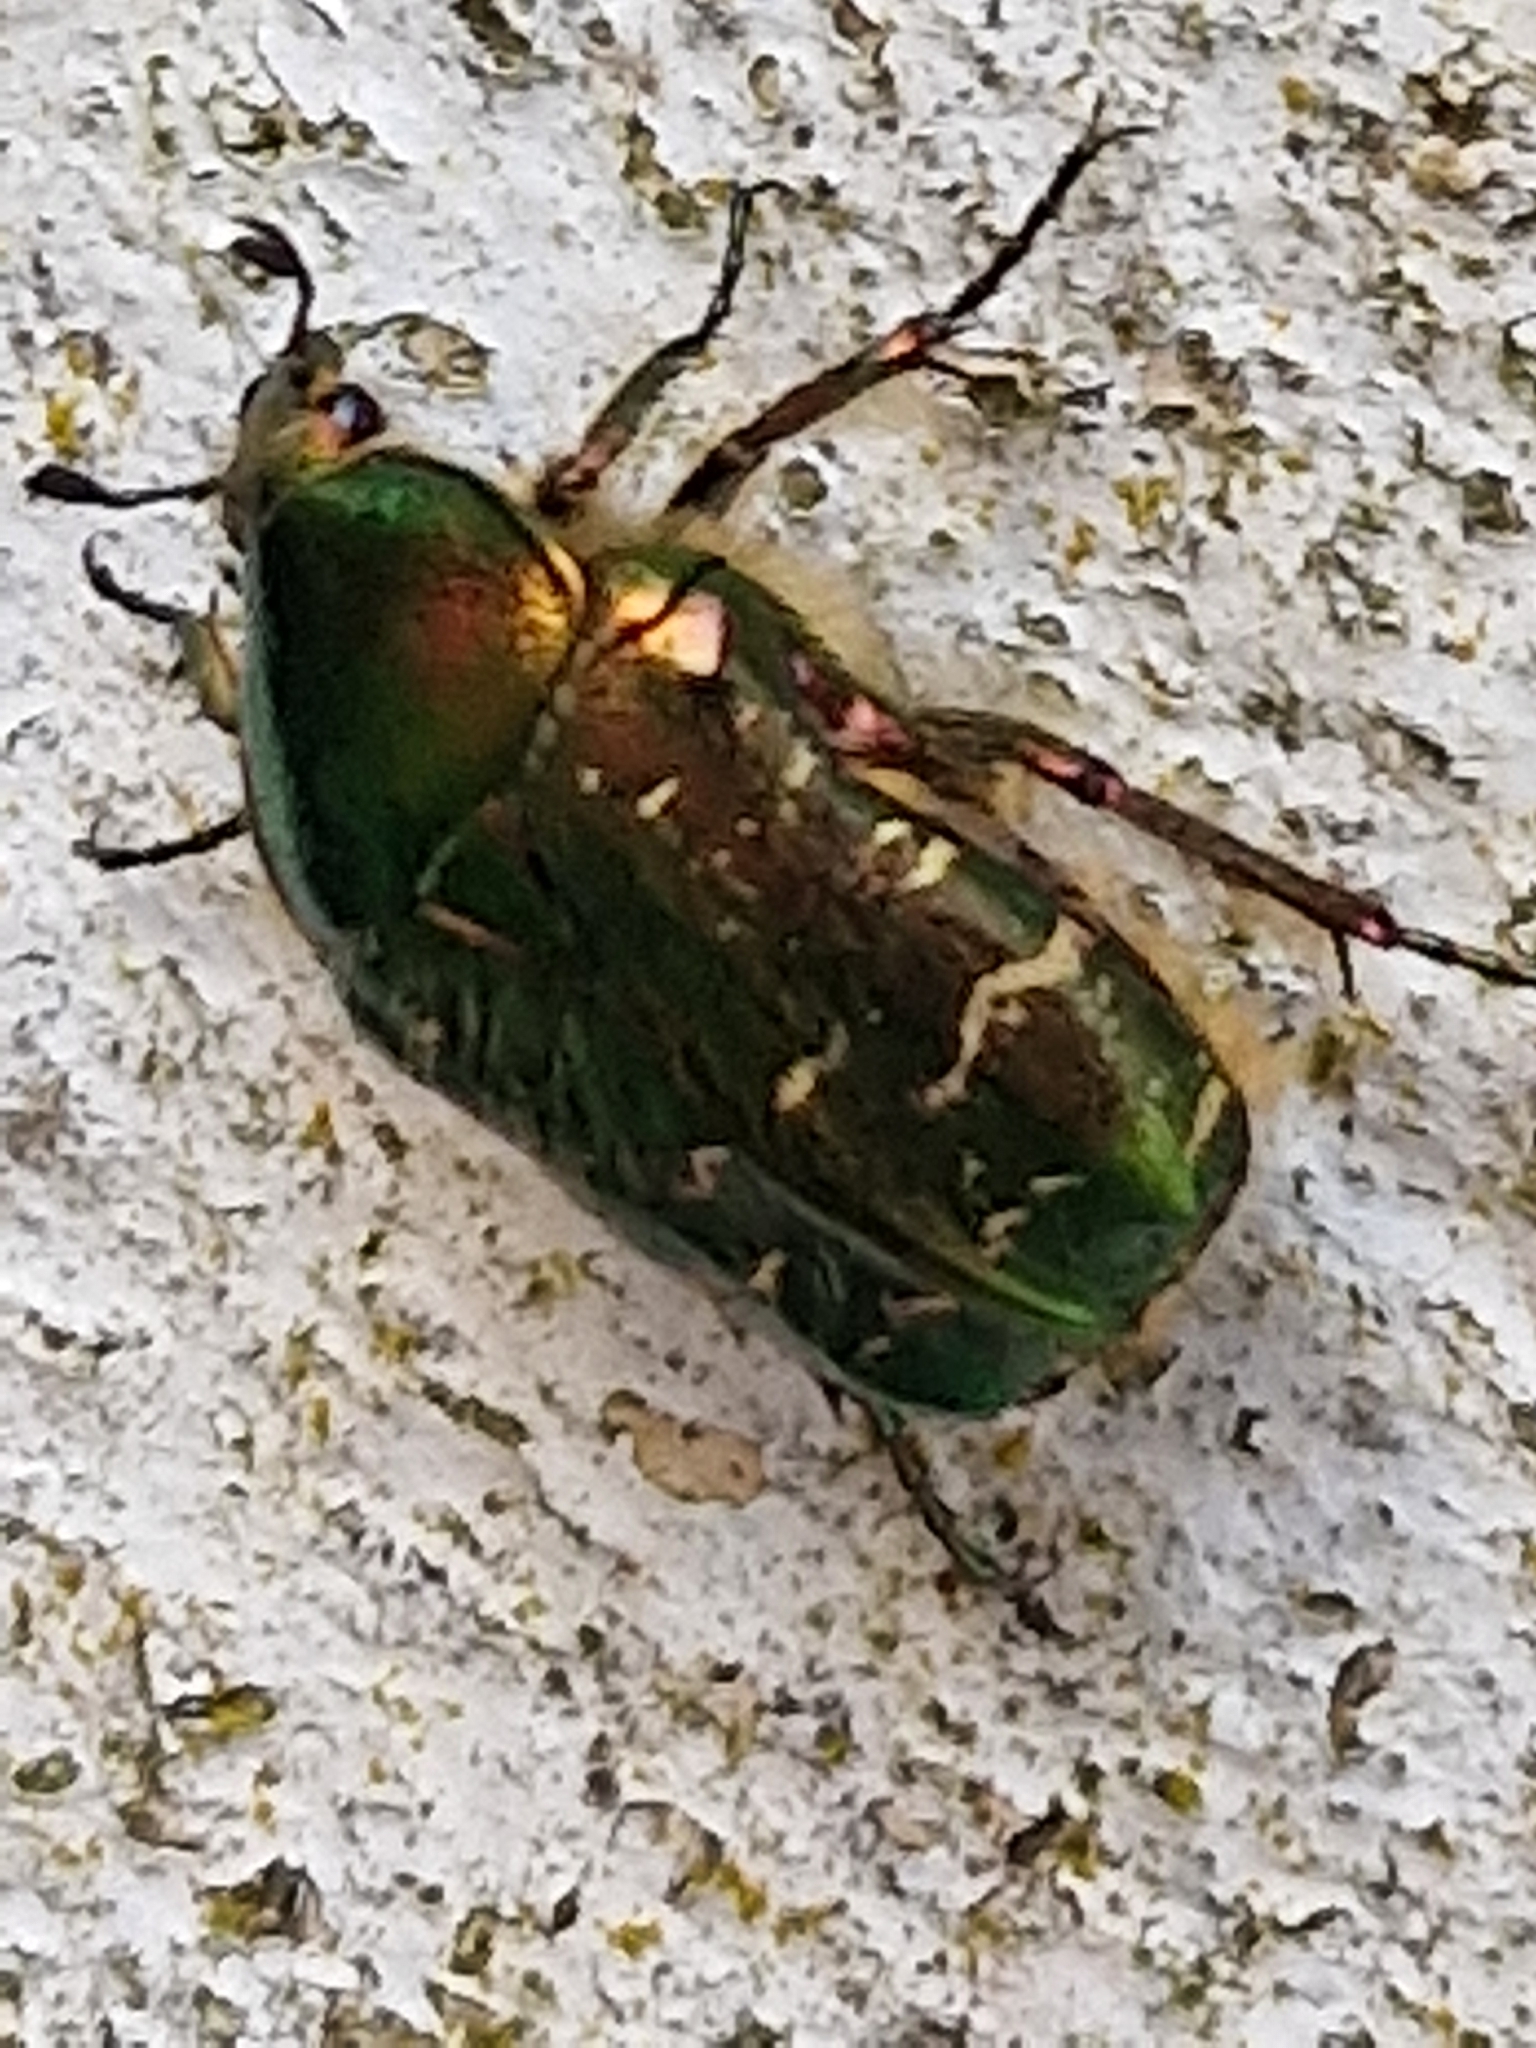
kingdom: Animalia
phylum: Arthropoda
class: Insecta
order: Coleoptera
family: Scarabaeidae
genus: Cetonia
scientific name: Cetonia aurata
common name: Rose chafer
